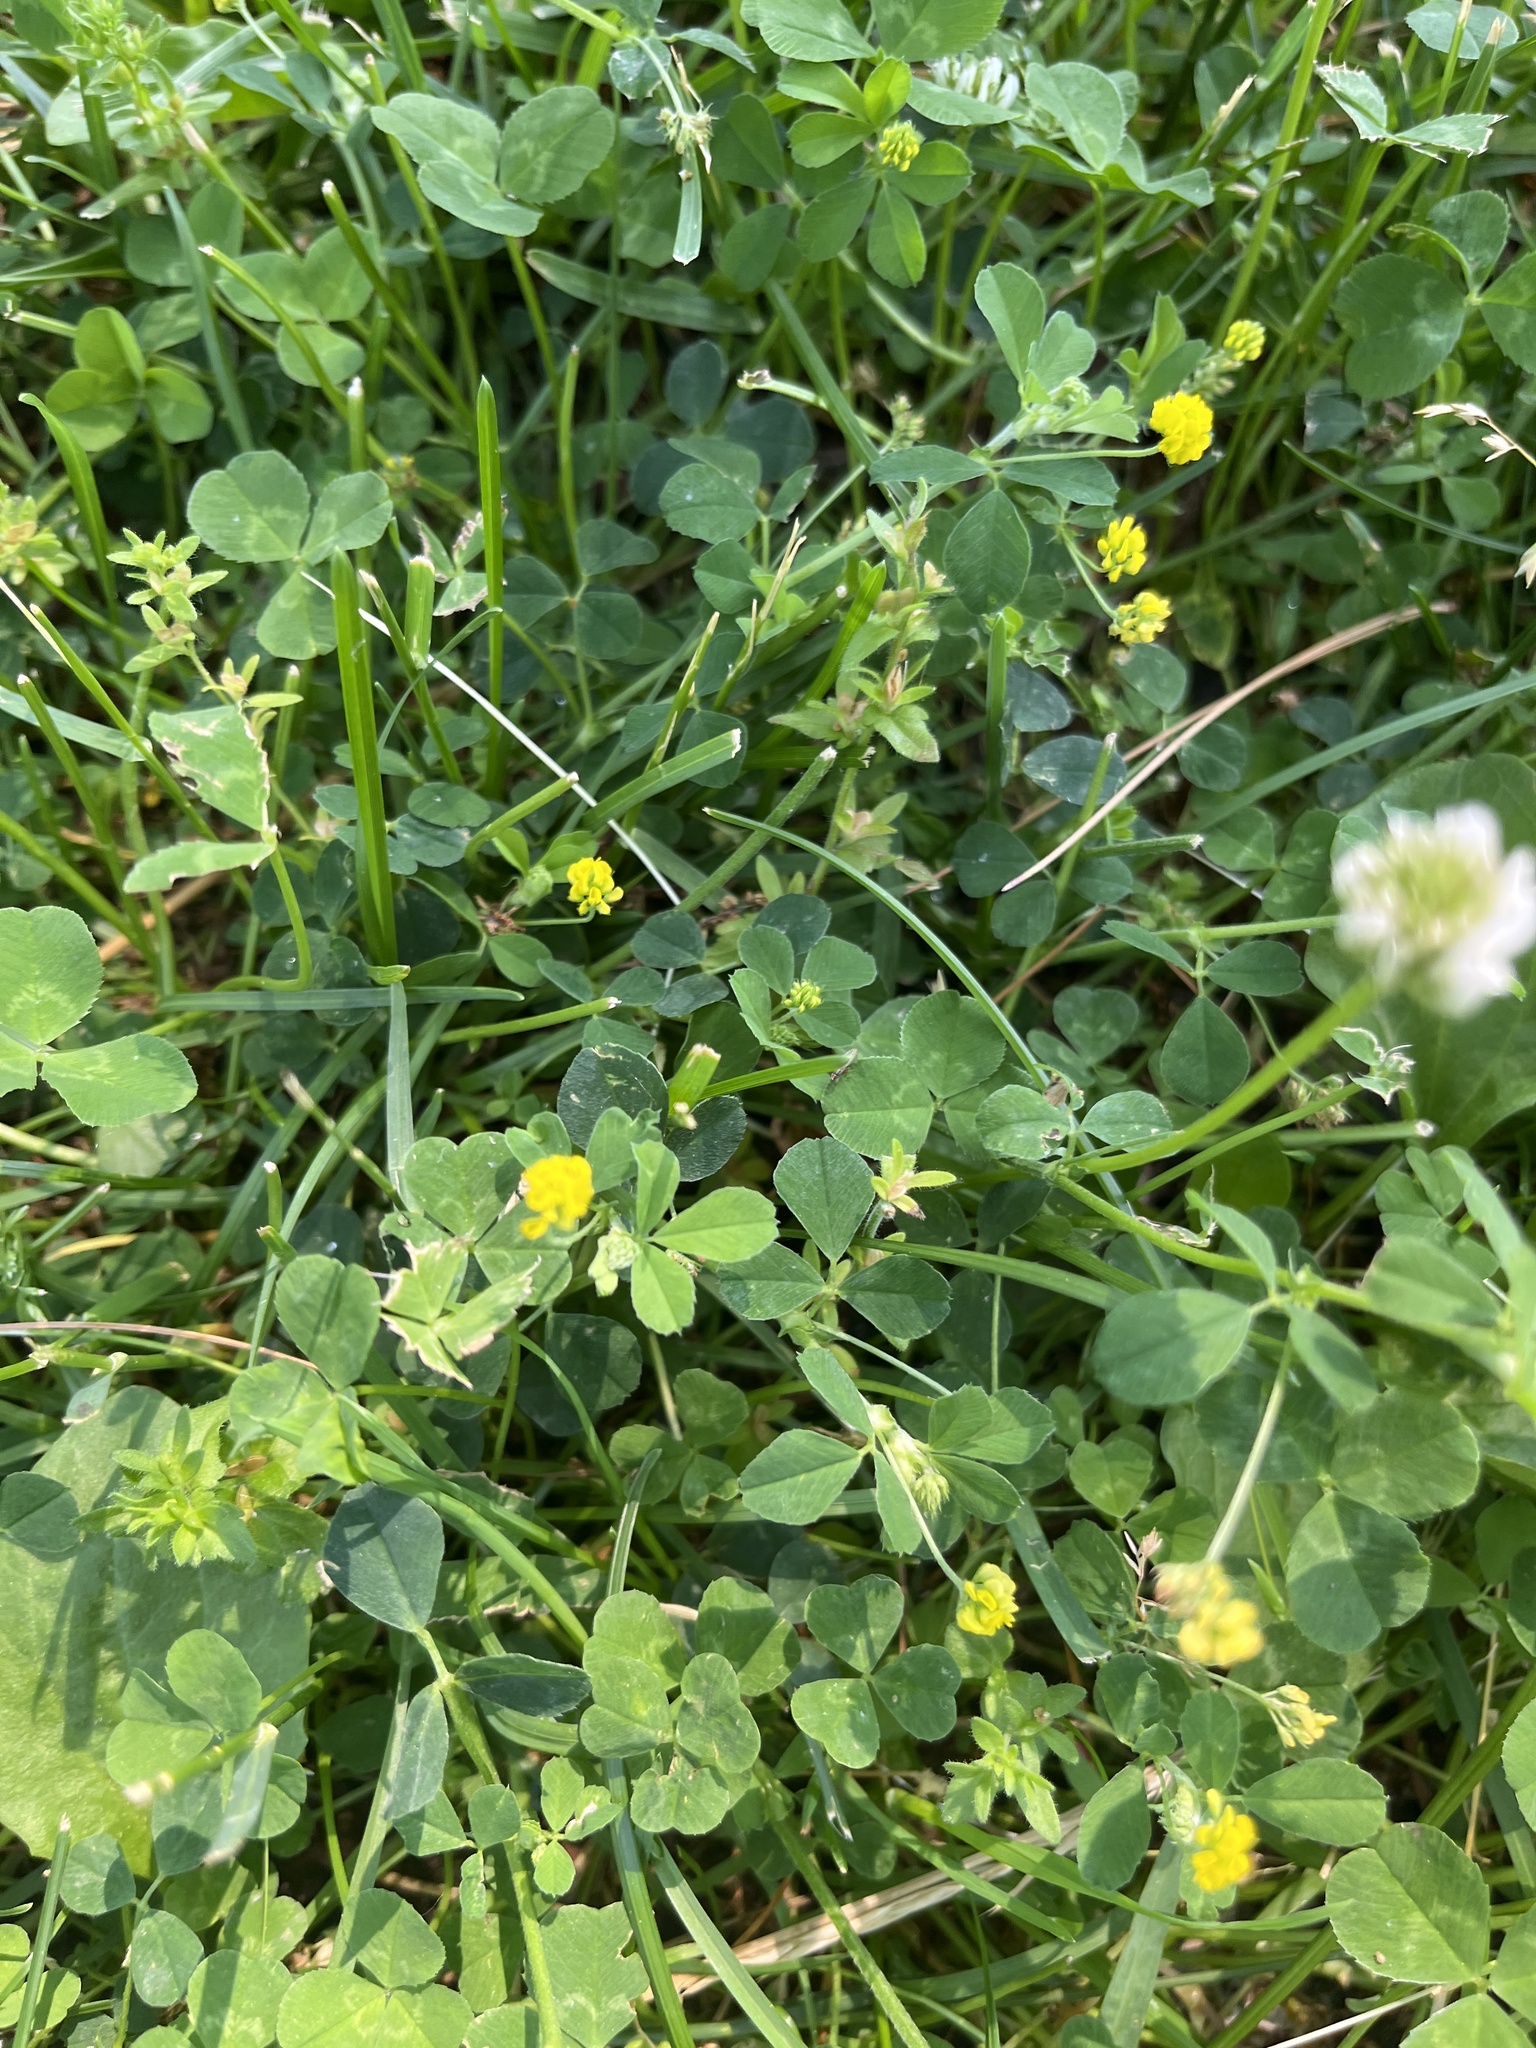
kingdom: Plantae
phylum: Tracheophyta
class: Magnoliopsida
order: Fabales
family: Fabaceae
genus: Medicago
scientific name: Medicago lupulina
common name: Black medick
